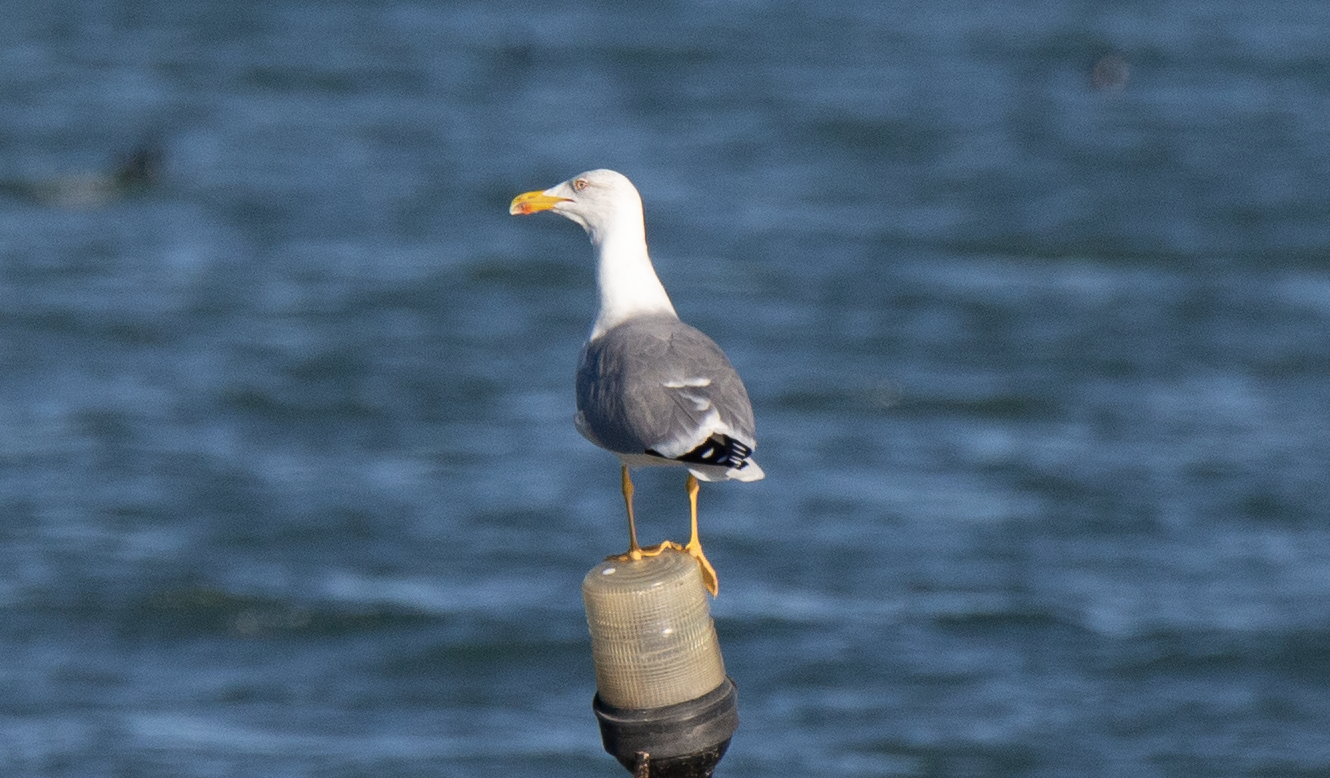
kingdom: Animalia
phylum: Chordata
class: Aves
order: Charadriiformes
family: Laridae
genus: Larus
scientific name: Larus michahellis
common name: Yellow-legged gull
